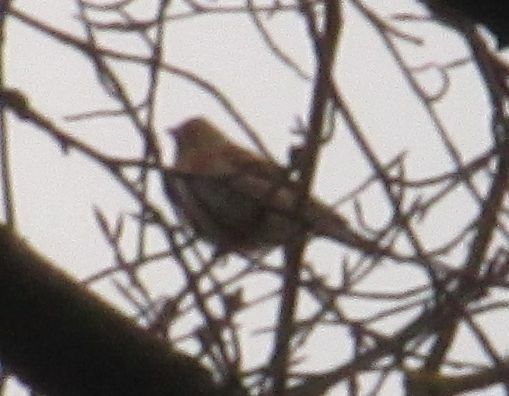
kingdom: Animalia
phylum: Chordata
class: Aves
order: Passeriformes
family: Fringillidae
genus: Fringilla
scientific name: Fringilla montifringilla
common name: Brambling
